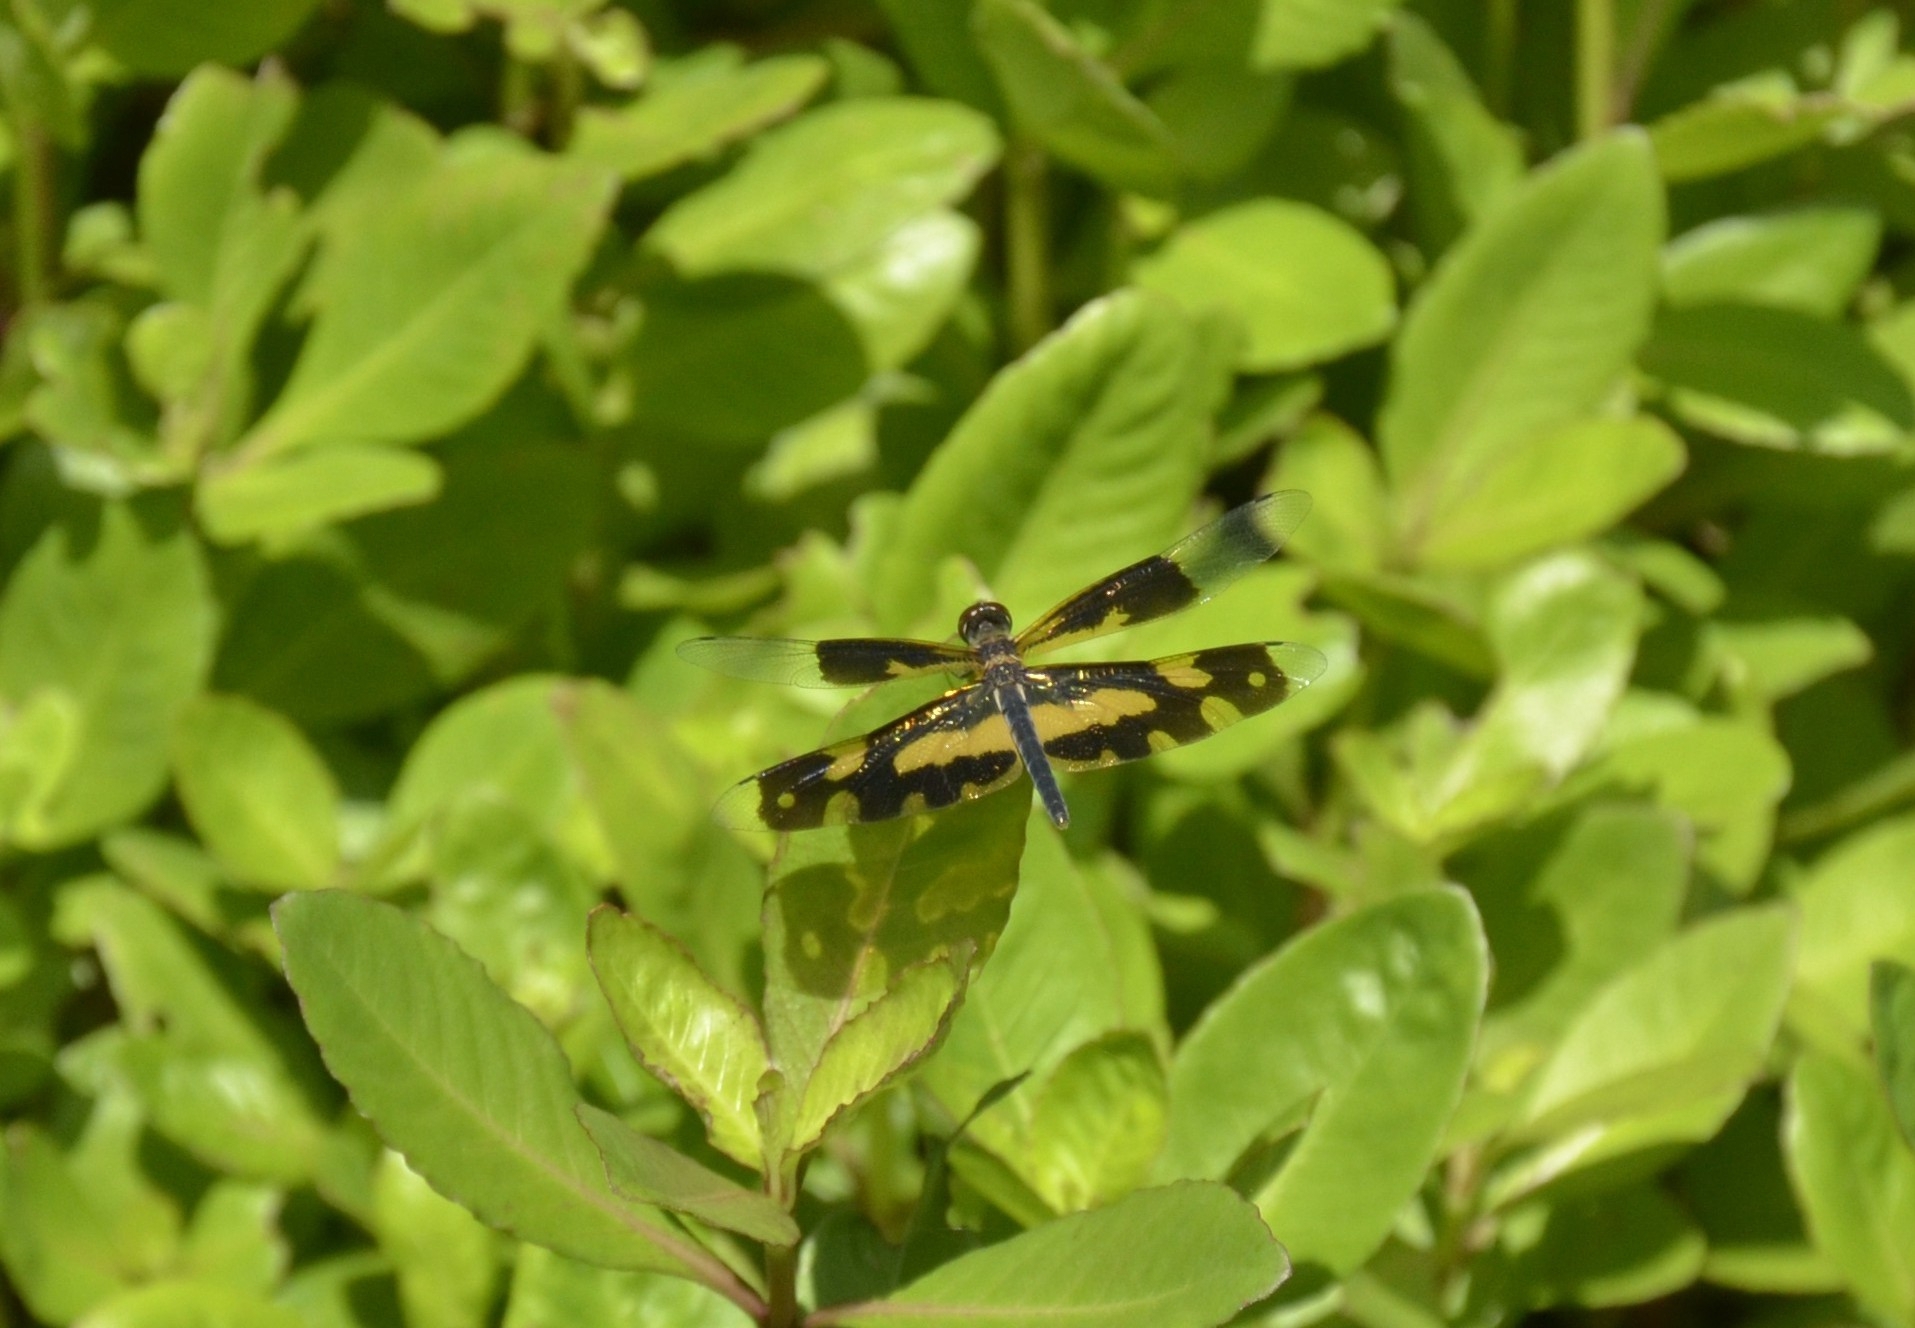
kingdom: Animalia
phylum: Arthropoda
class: Insecta
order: Odonata
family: Libellulidae
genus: Rhyothemis
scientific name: Rhyothemis variegata
